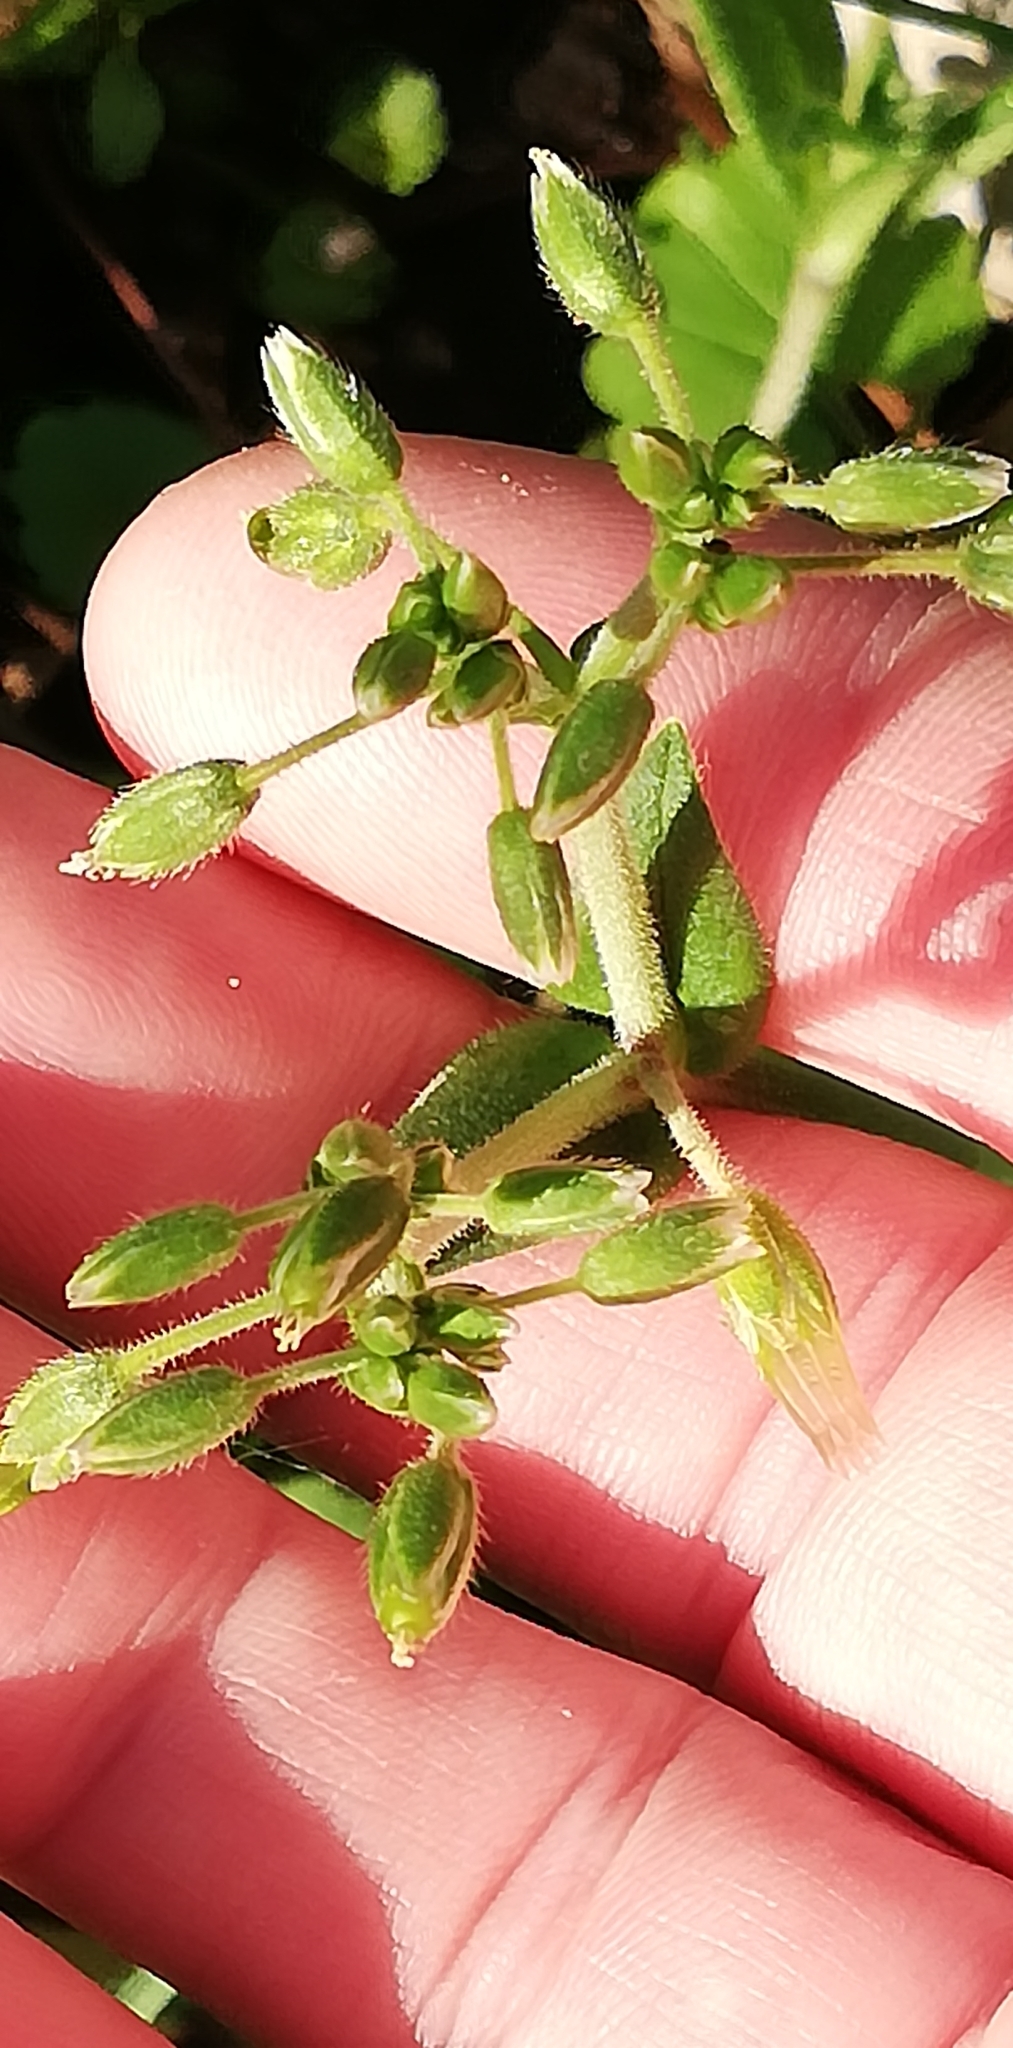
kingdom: Plantae
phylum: Tracheophyta
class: Magnoliopsida
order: Caryophyllales
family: Caryophyllaceae
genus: Cerastium
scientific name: Cerastium holosteoides
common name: Big chickweed
